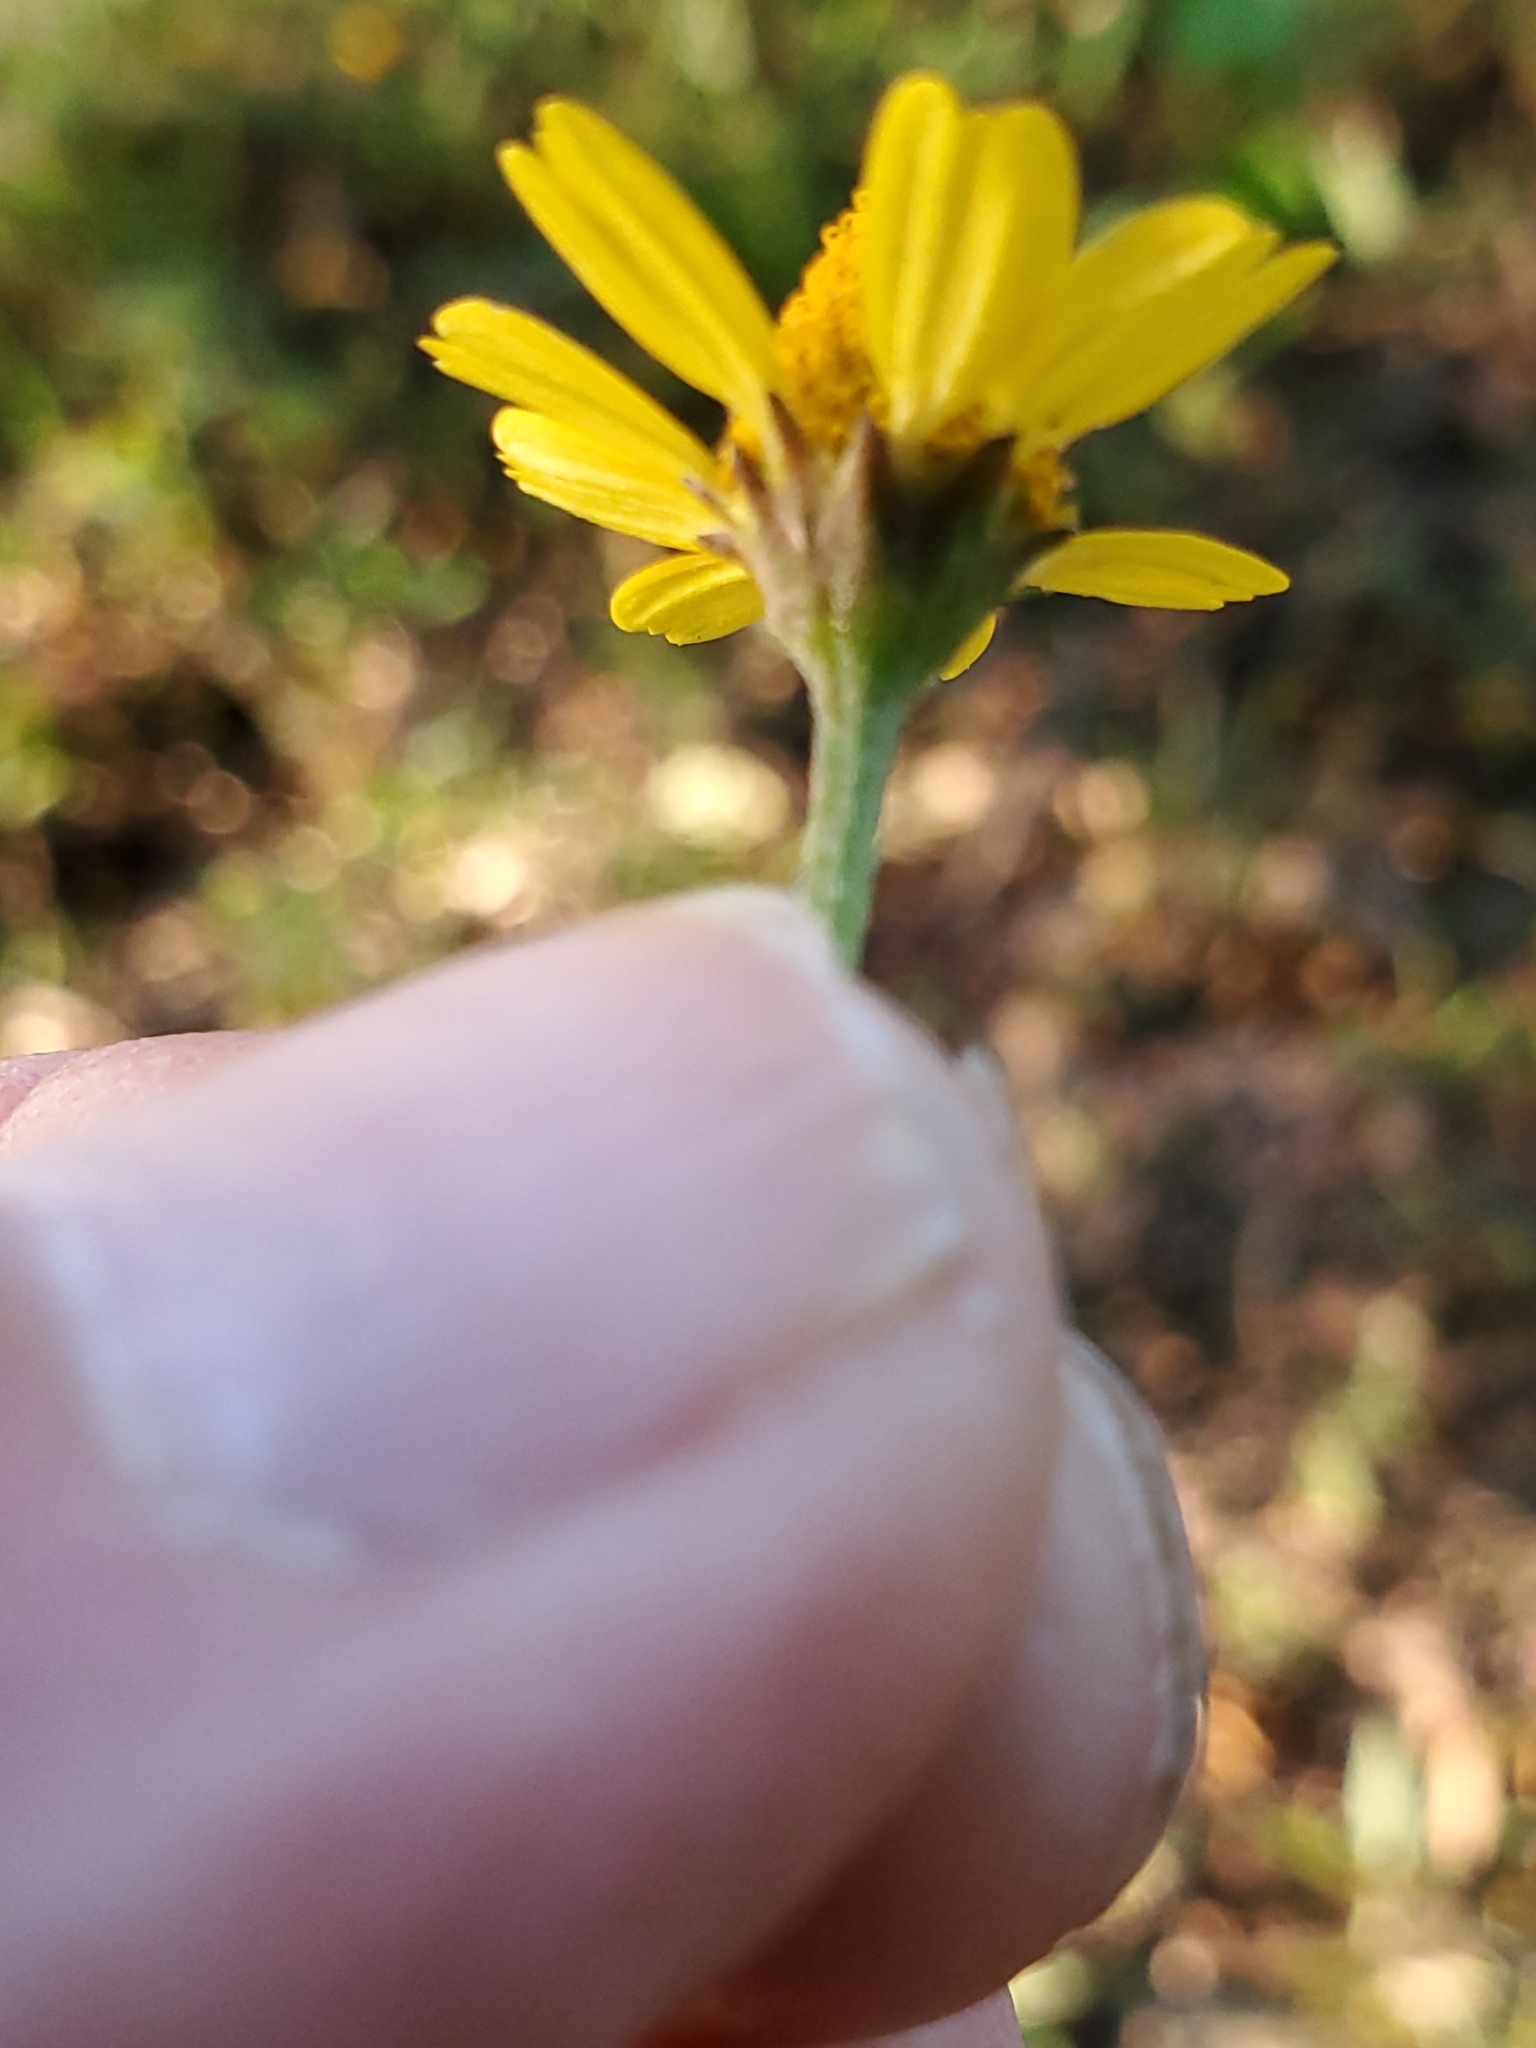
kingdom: Plantae
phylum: Tracheophyta
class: Magnoliopsida
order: Asterales
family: Asteraceae
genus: Acmella
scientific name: Acmella repens
